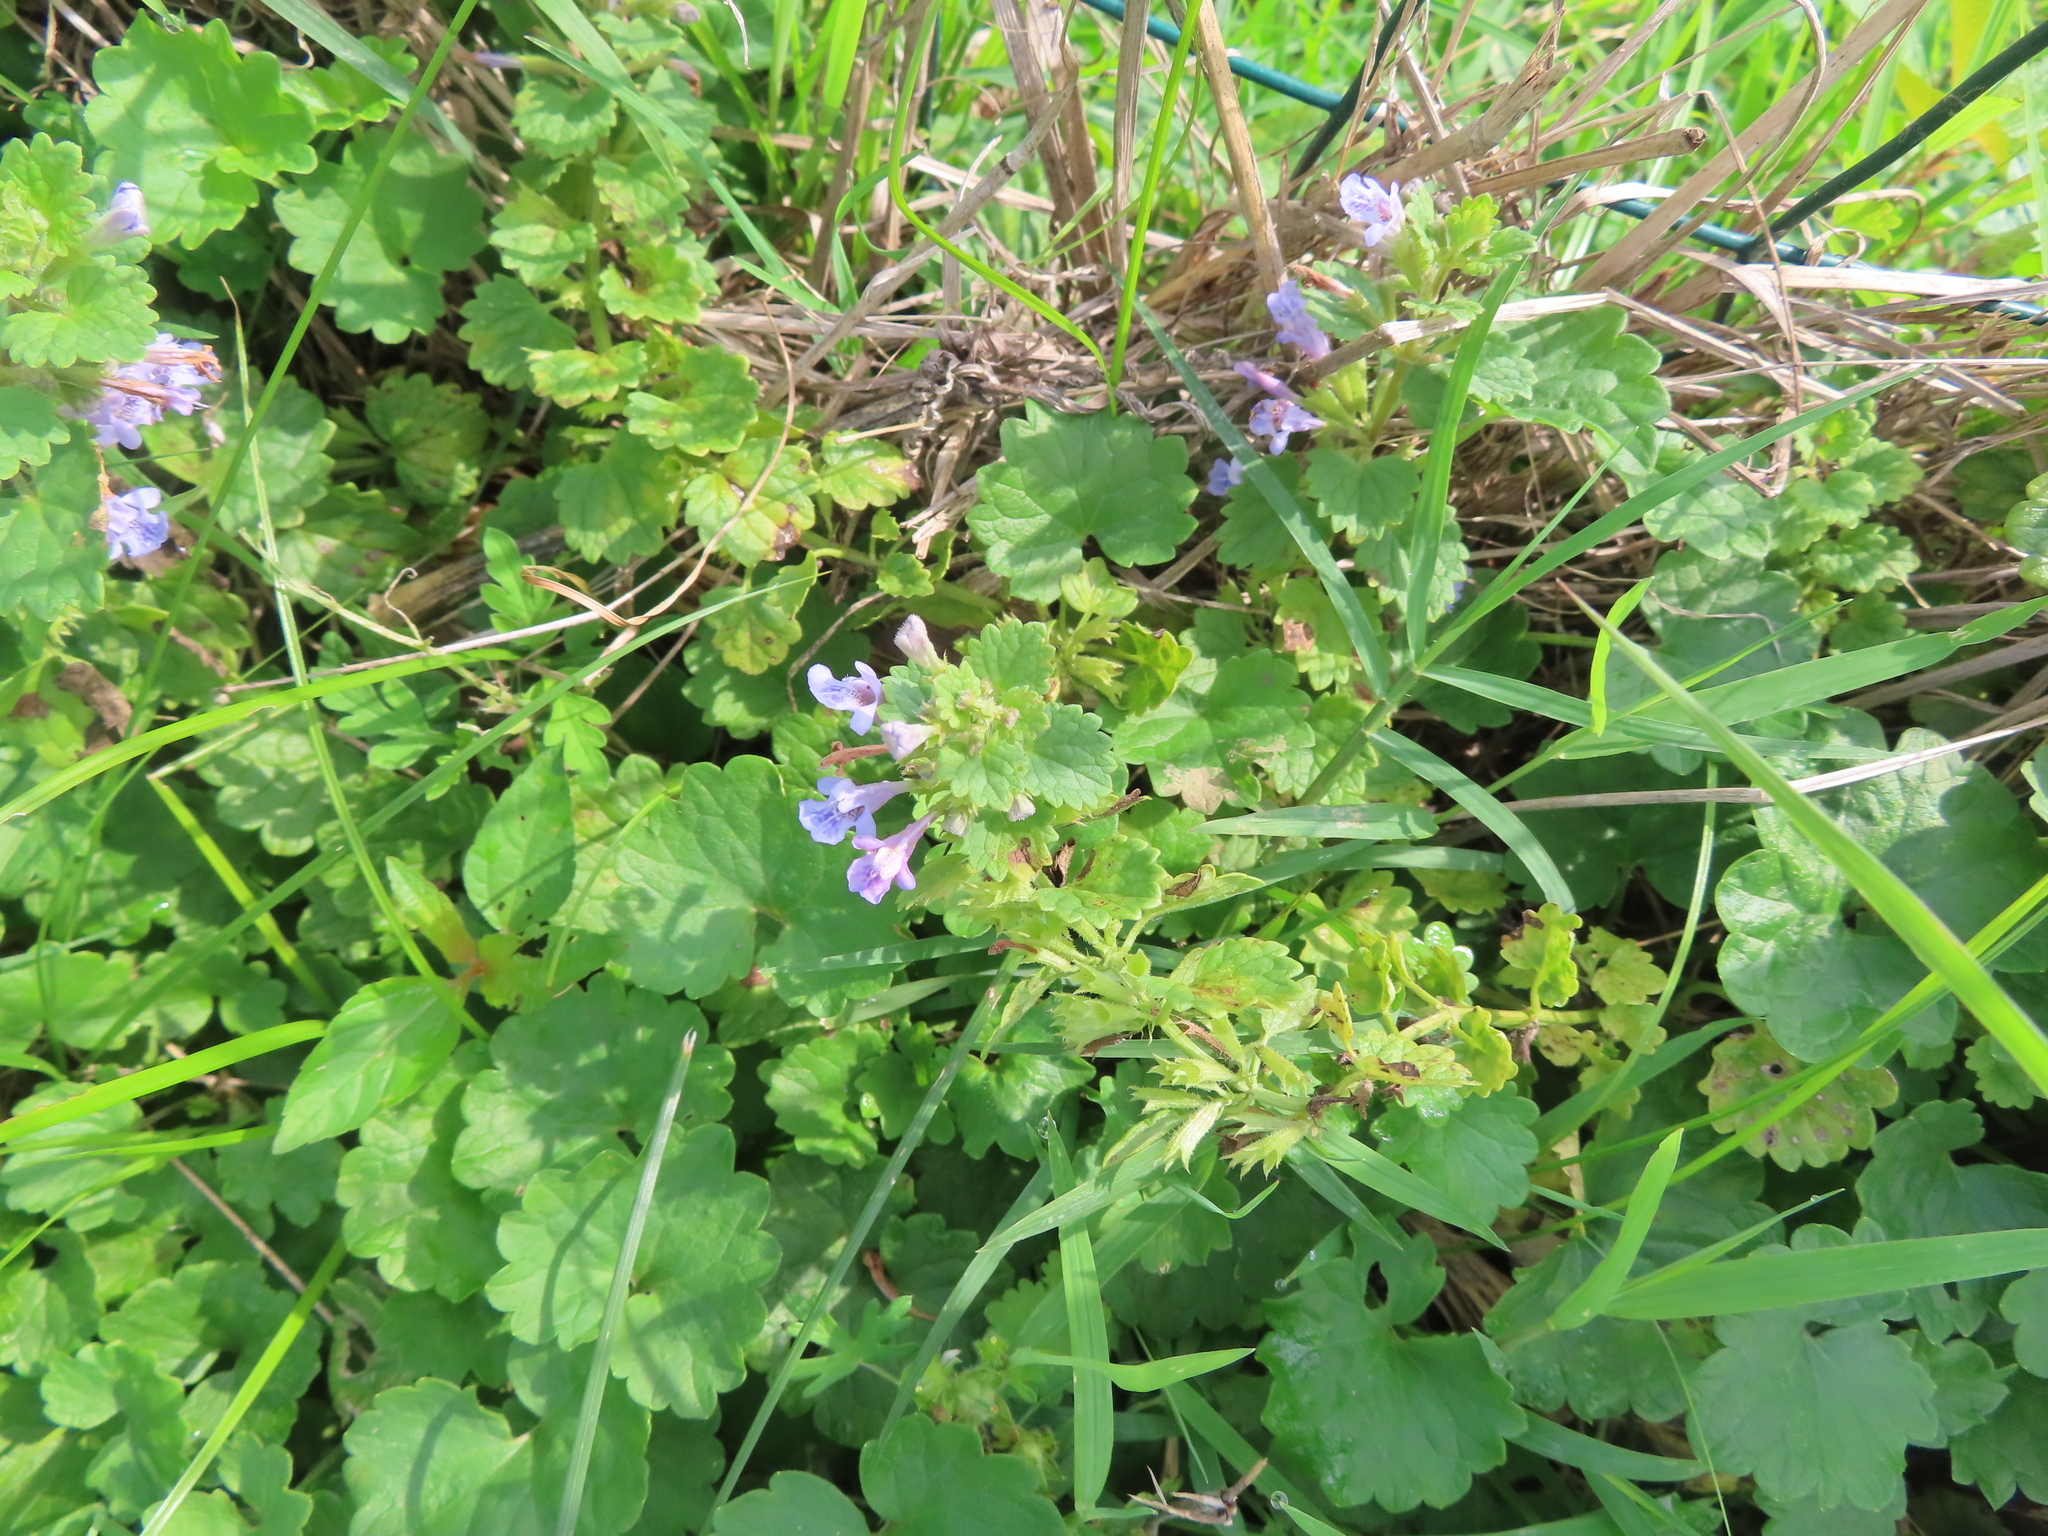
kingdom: Plantae
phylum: Tracheophyta
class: Magnoliopsida
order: Lamiales
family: Lamiaceae
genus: Glechoma
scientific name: Glechoma hederacea
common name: Ground ivy
